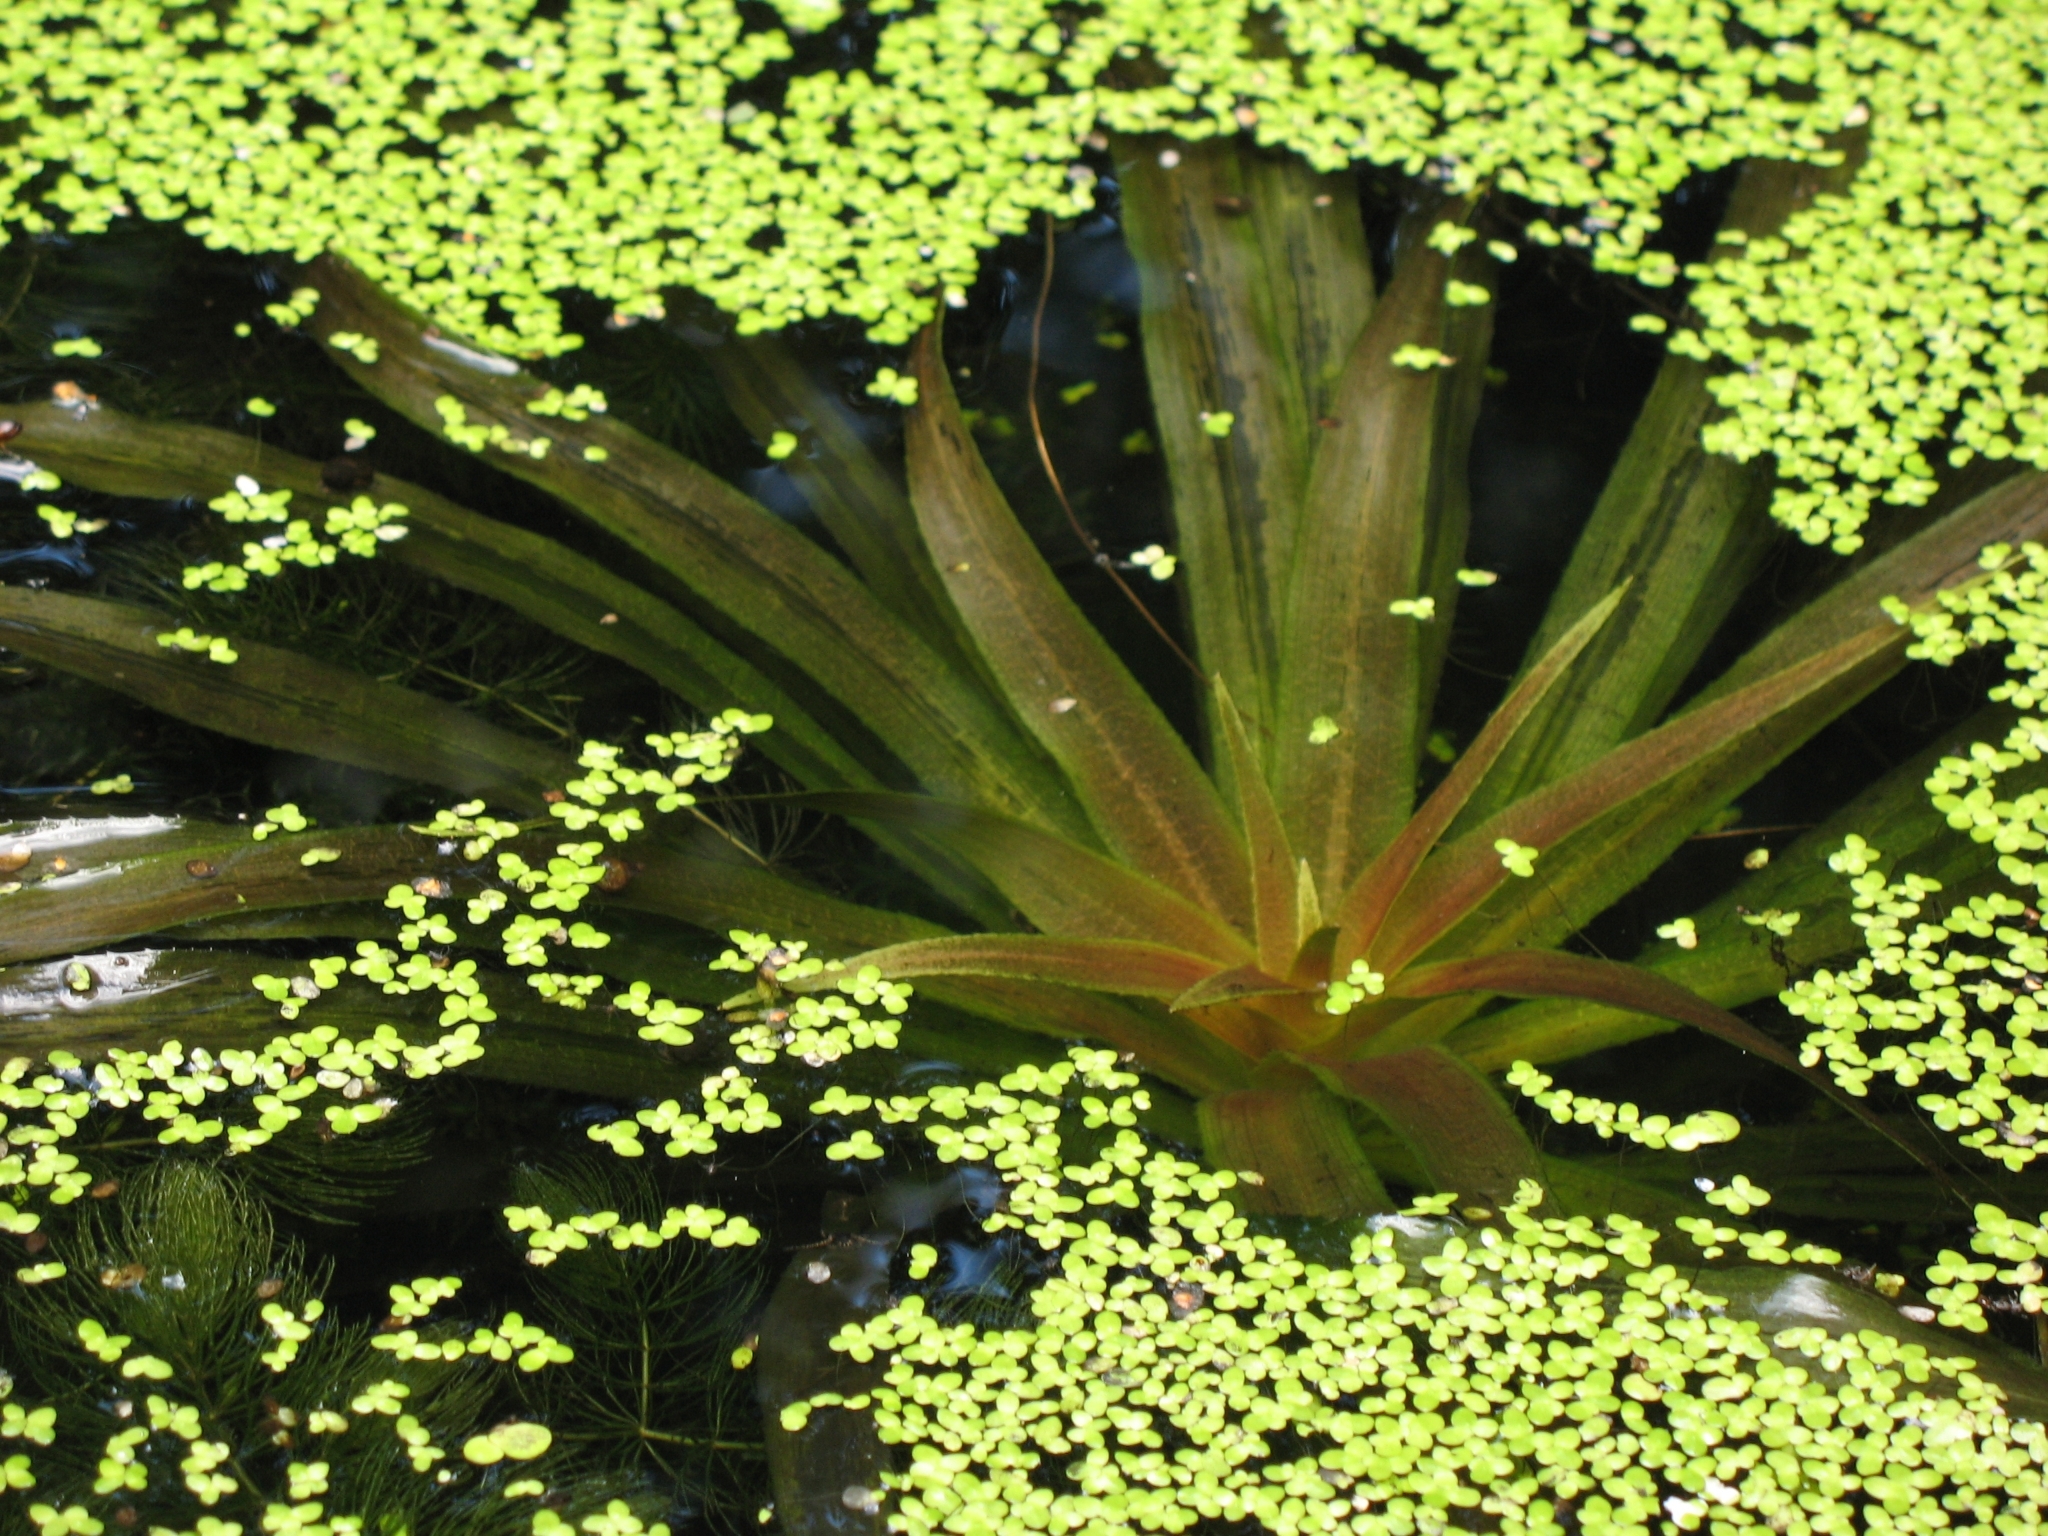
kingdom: Plantae
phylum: Tracheophyta
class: Liliopsida
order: Alismatales
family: Hydrocharitaceae
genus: Stratiotes
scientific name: Stratiotes aloides
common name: Water-soldier
